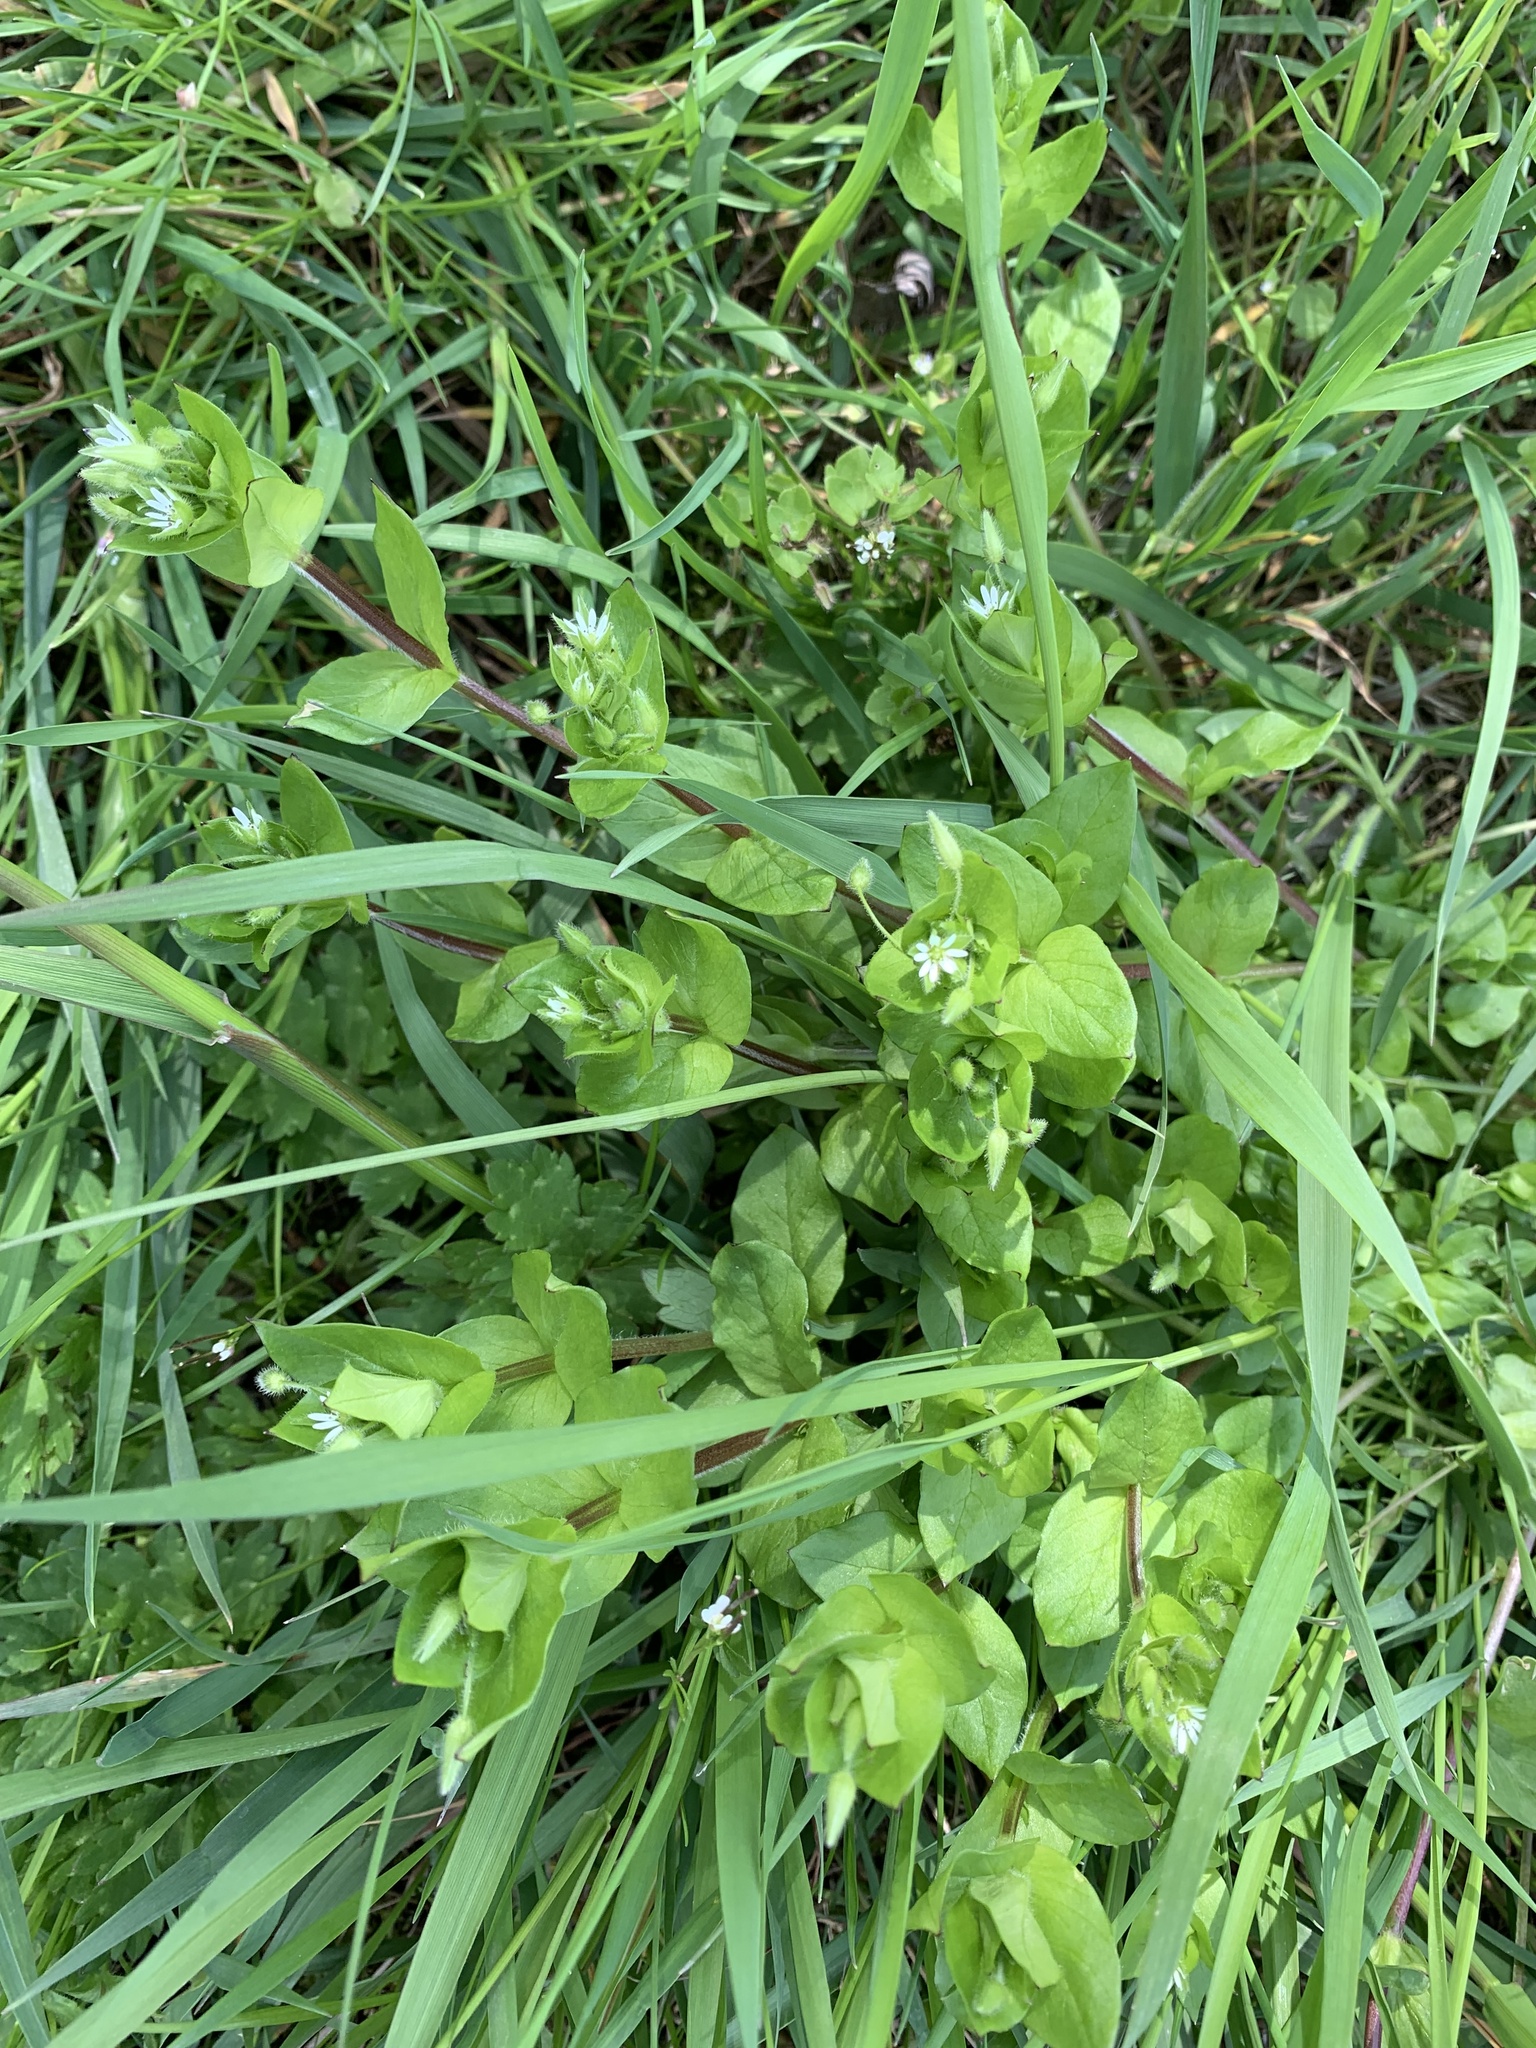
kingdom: Plantae
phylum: Tracheophyta
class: Magnoliopsida
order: Caryophyllales
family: Caryophyllaceae
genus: Stellaria
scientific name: Stellaria media
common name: Common chickweed
